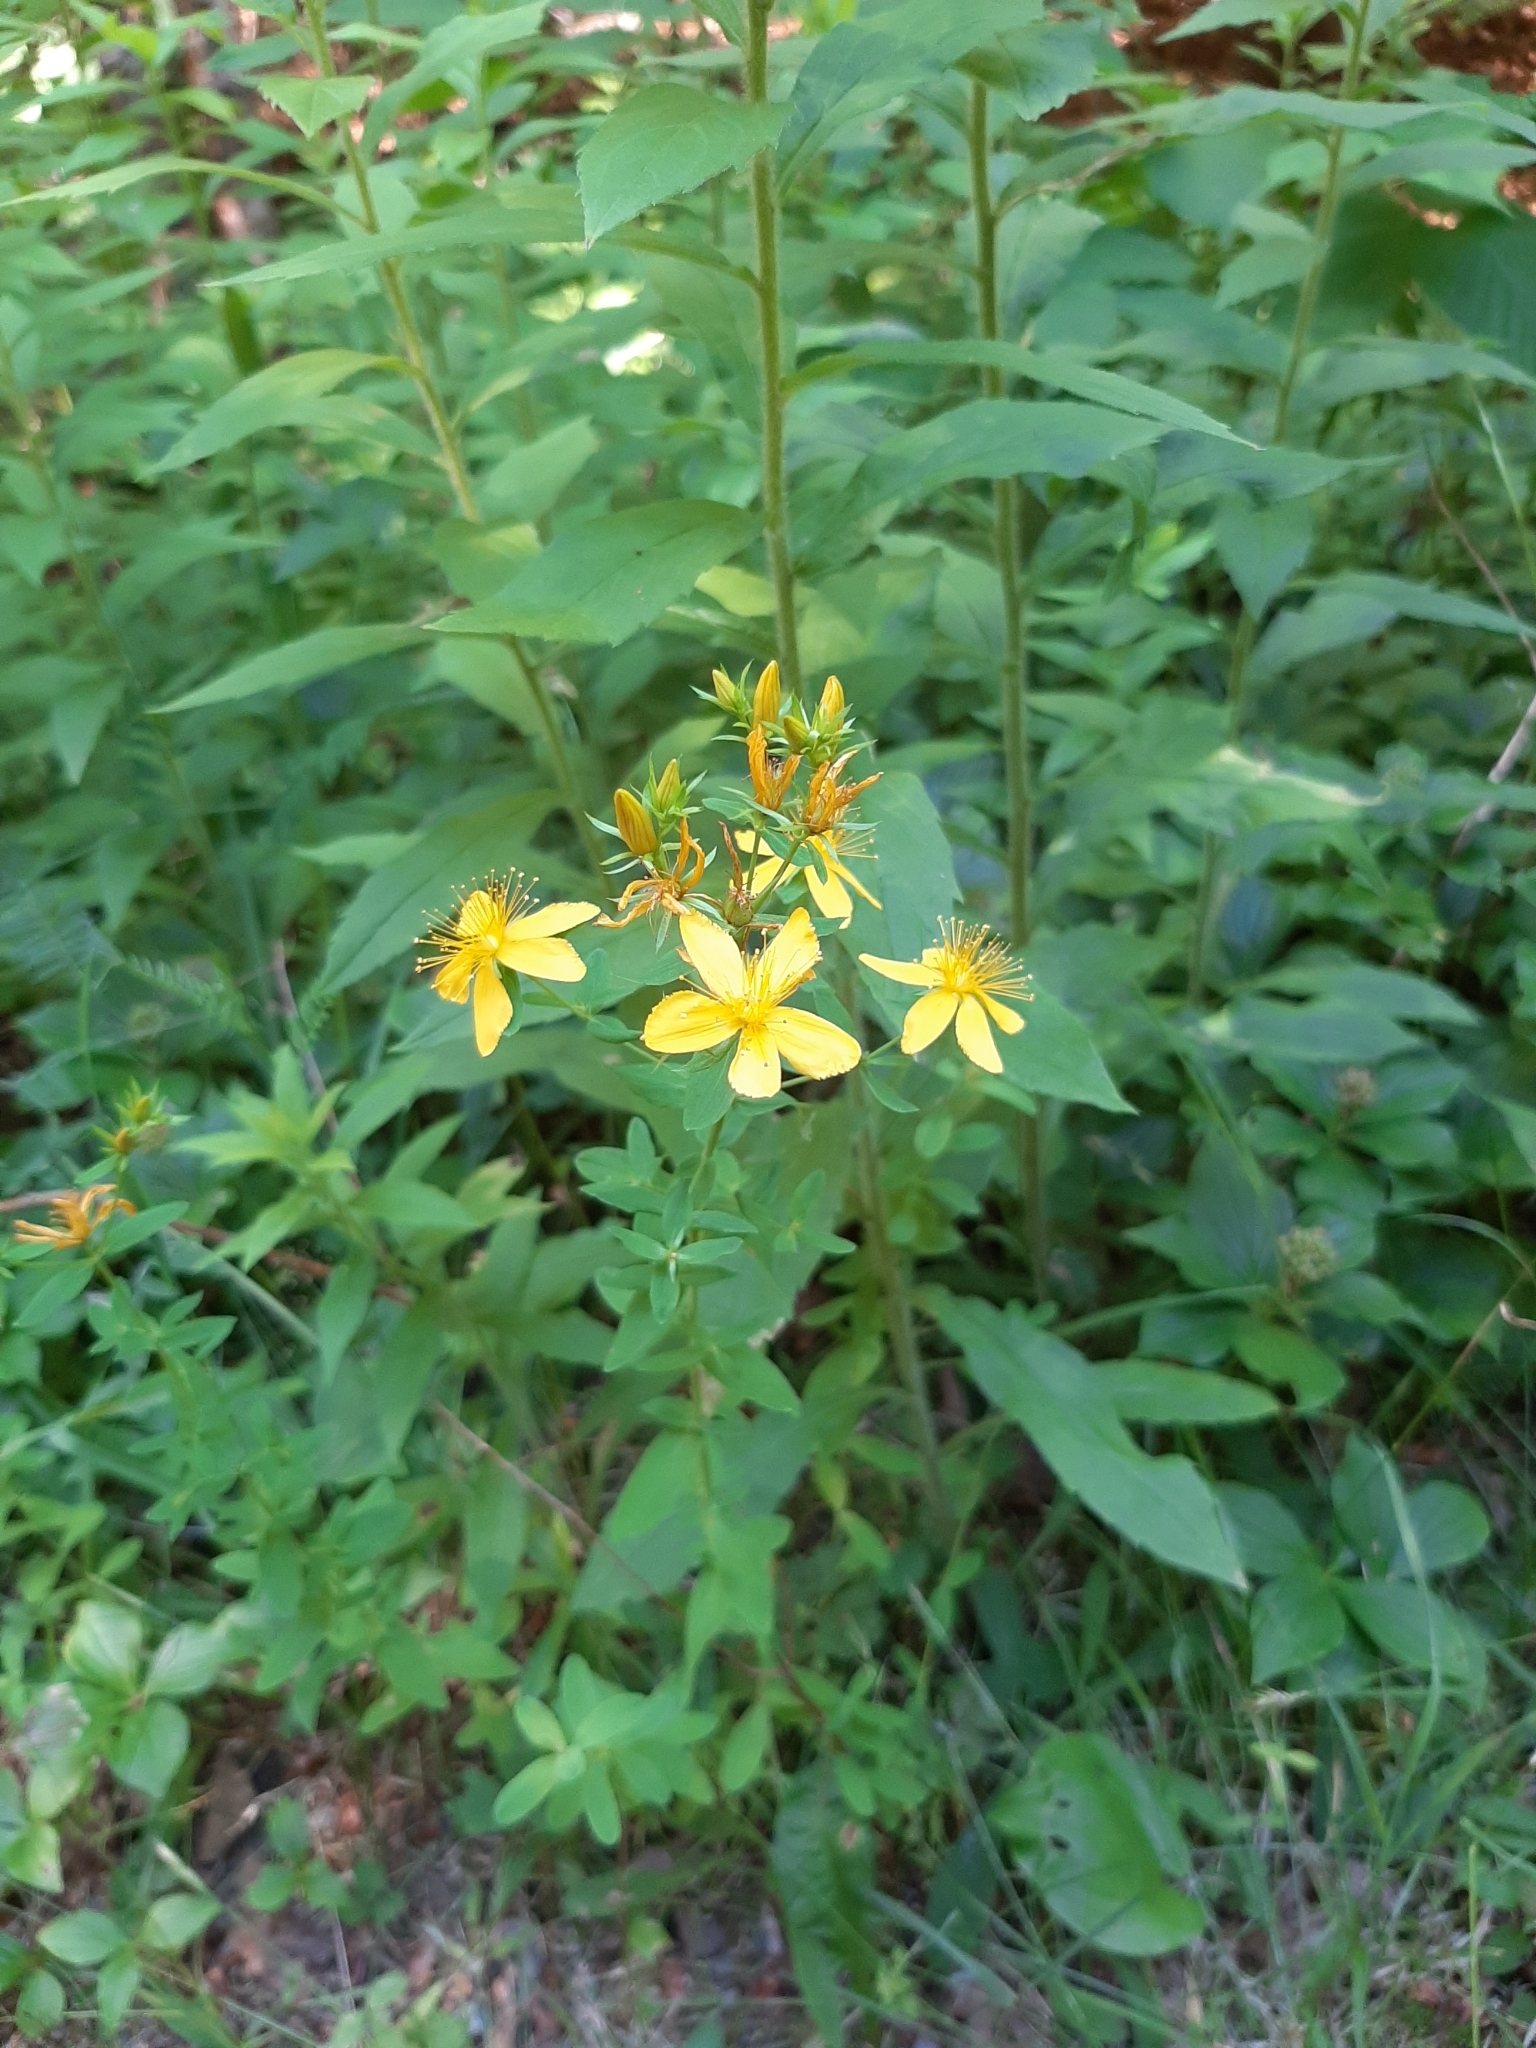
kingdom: Plantae
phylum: Tracheophyta
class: Magnoliopsida
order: Malpighiales
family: Hypericaceae
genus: Hypericum
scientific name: Hypericum perforatum
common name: Common st. johnswort
